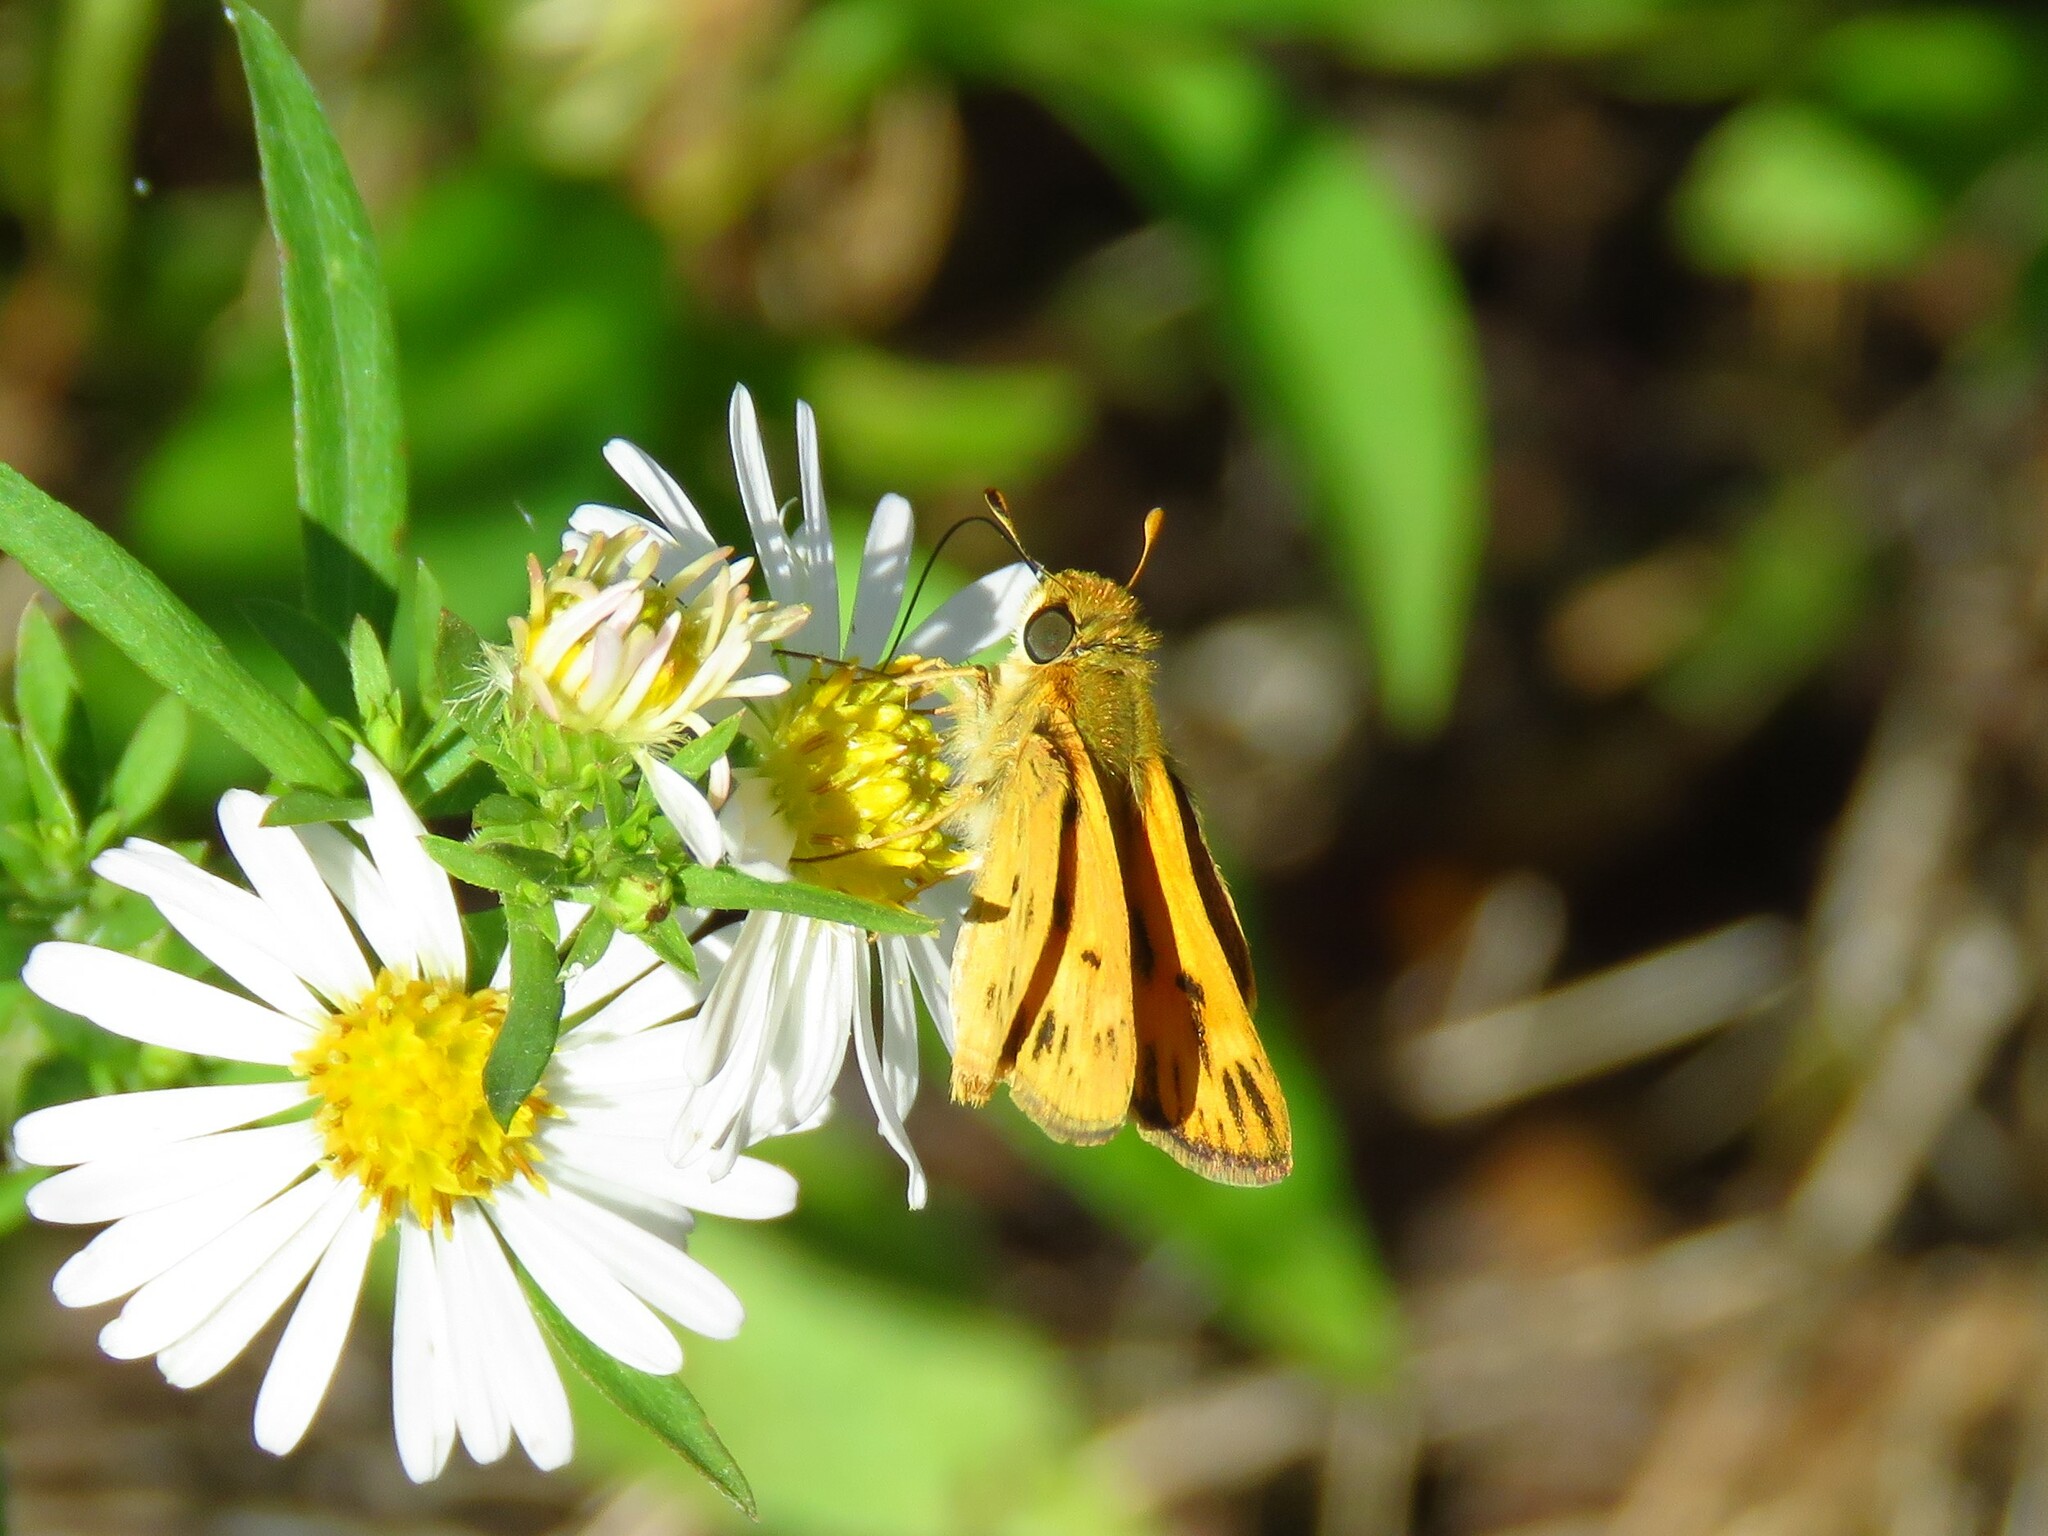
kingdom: Animalia
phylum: Arthropoda
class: Insecta
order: Lepidoptera
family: Hesperiidae
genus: Hylephila
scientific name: Hylephila phyleus
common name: Fiery skipper
